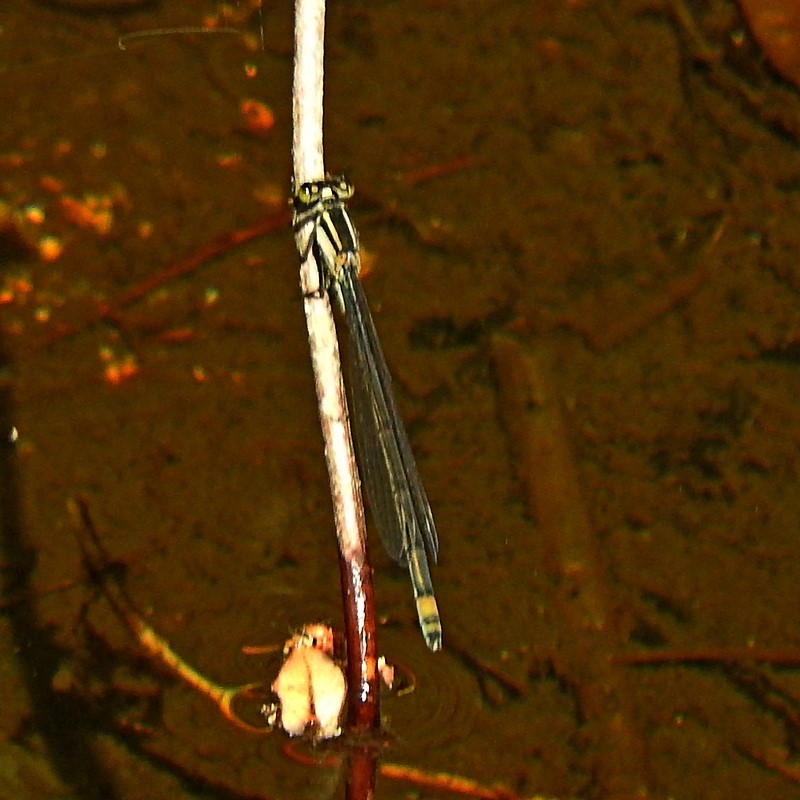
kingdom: Animalia
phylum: Arthropoda
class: Insecta
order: Odonata
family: Coenagrionidae
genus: Ischnura
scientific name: Ischnura heterosticta
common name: Common bluetail
